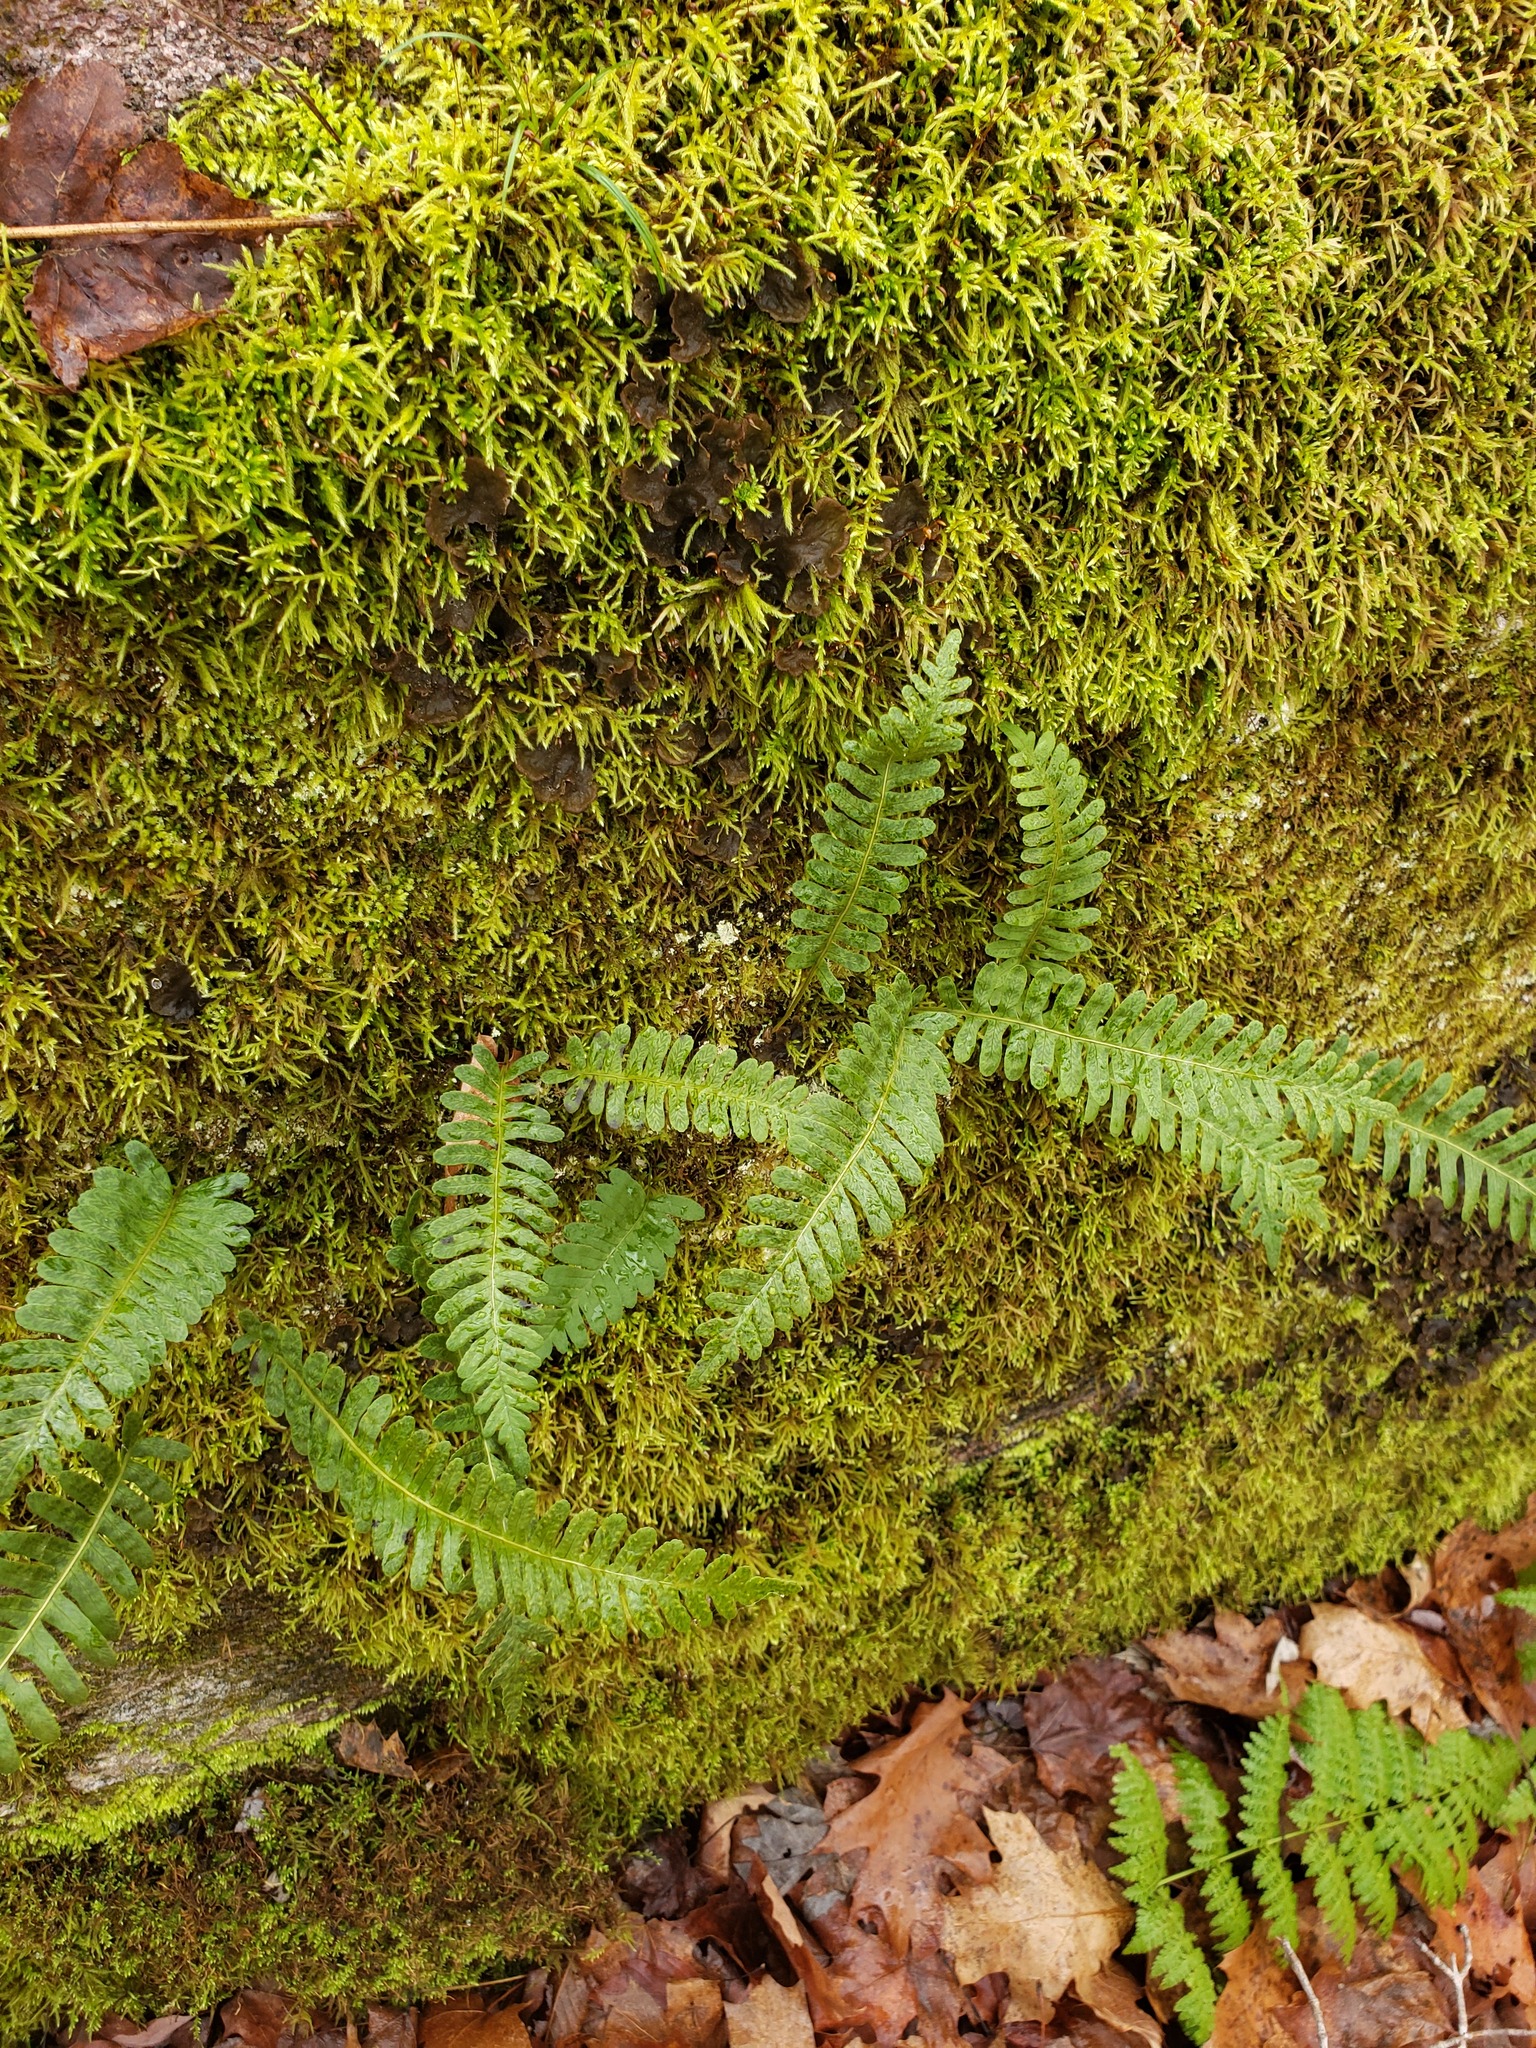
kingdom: Plantae
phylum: Tracheophyta
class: Polypodiopsida
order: Polypodiales
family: Polypodiaceae
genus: Polypodium
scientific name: Polypodium virginianum
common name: American wall fern
